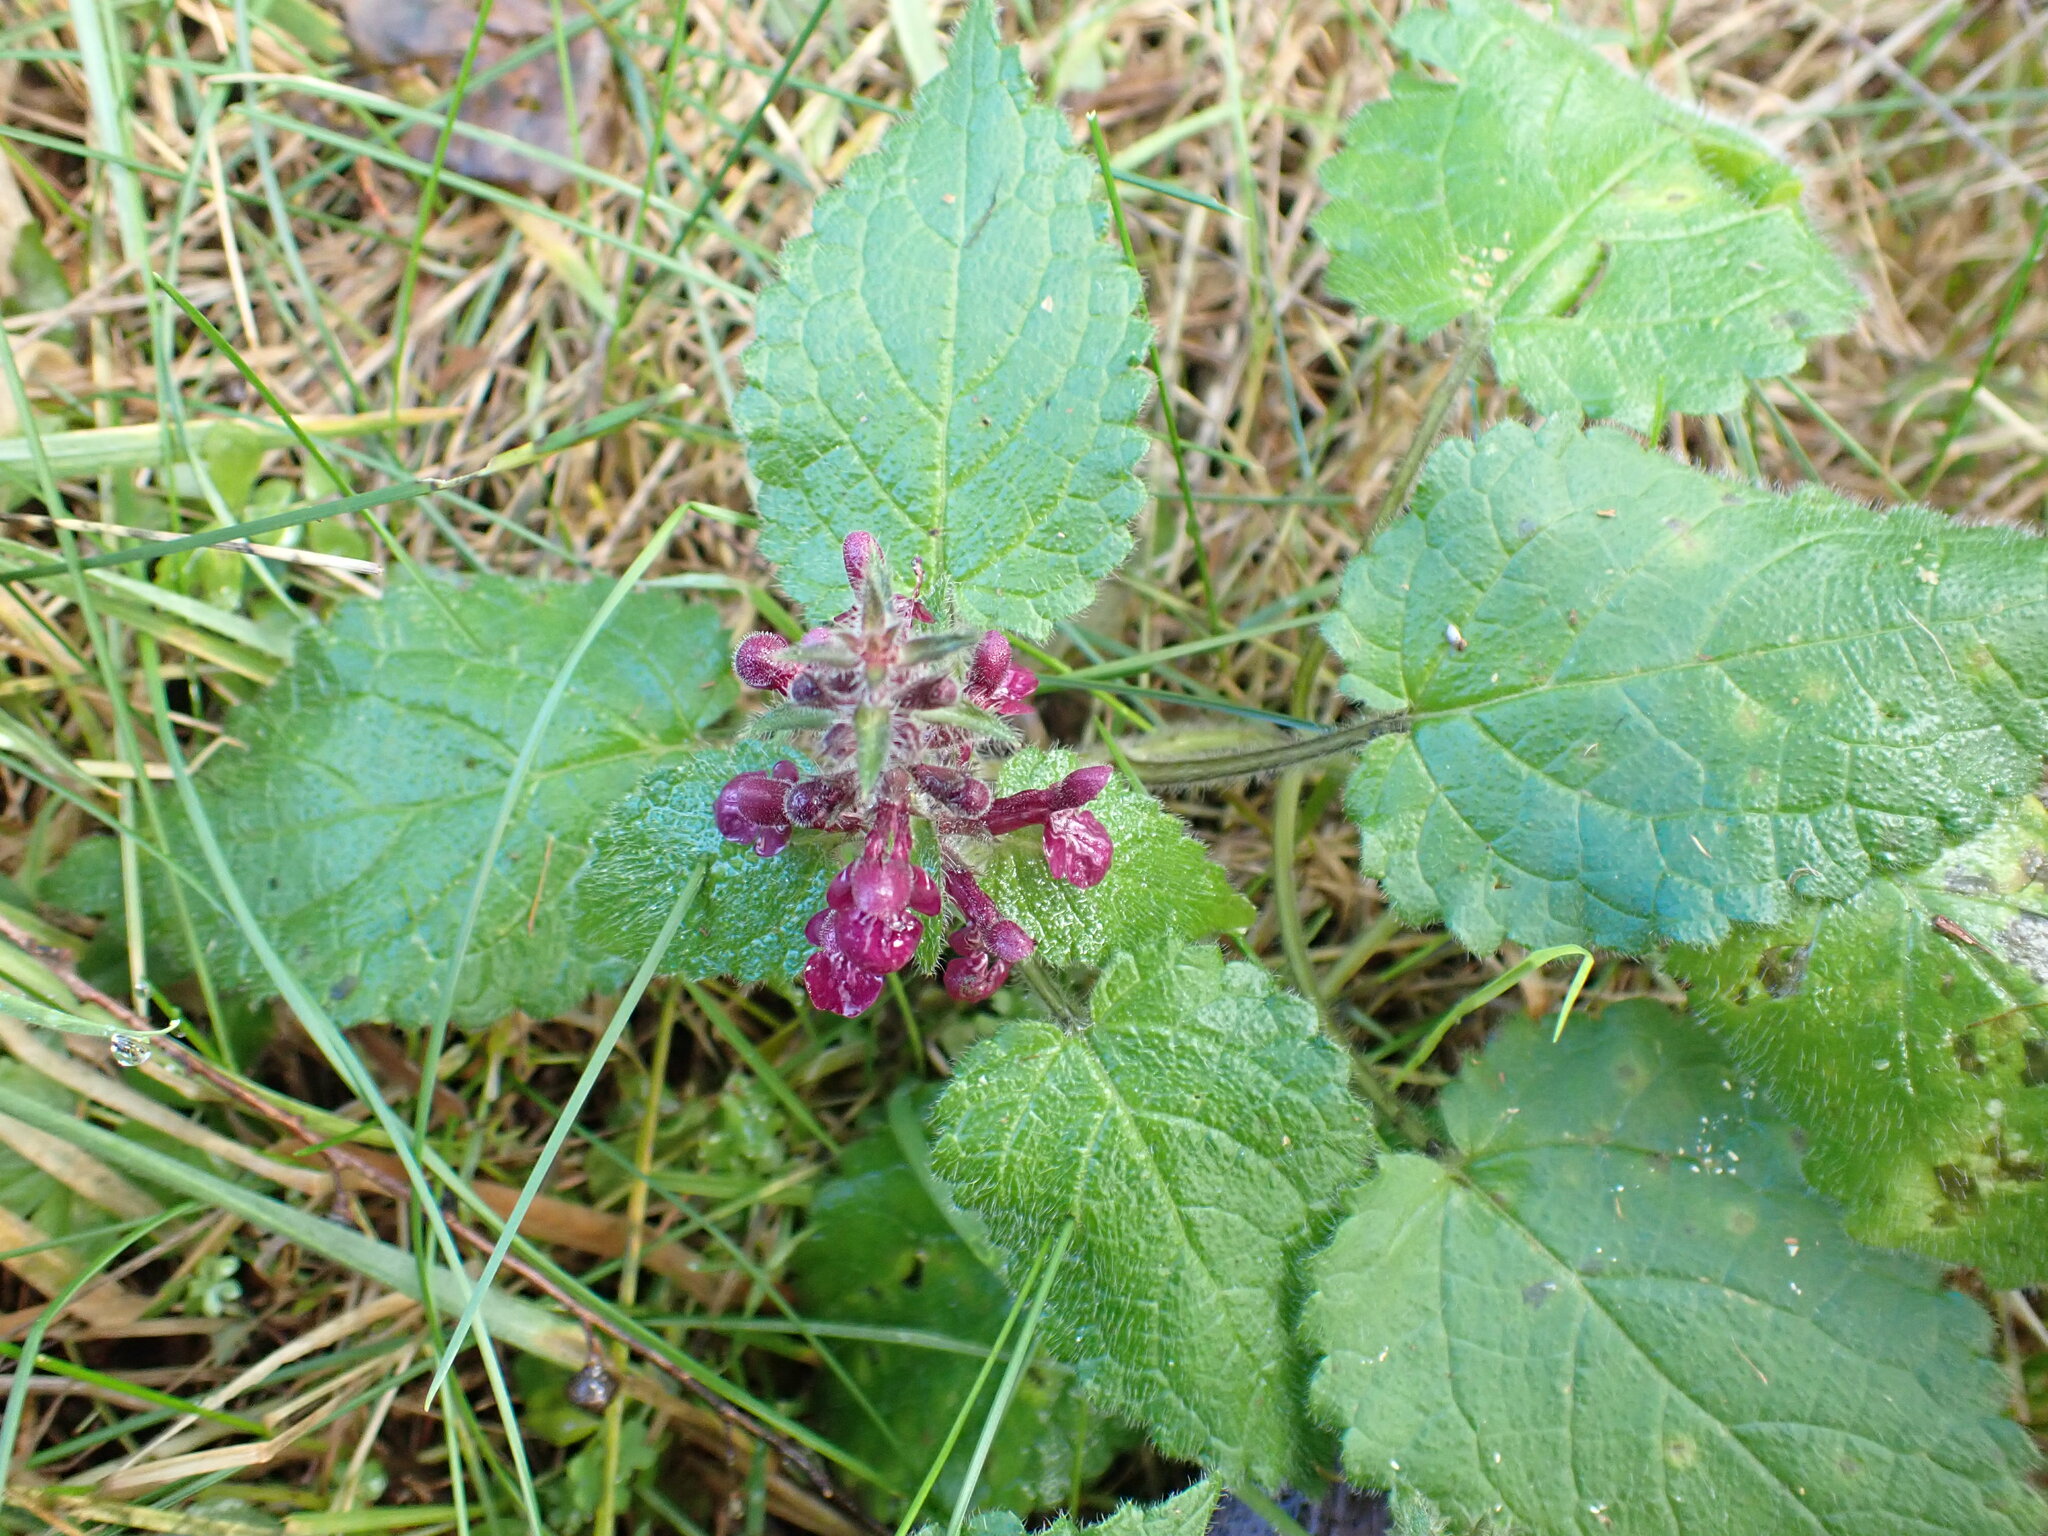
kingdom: Plantae
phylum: Tracheophyta
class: Magnoliopsida
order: Lamiales
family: Lamiaceae
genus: Stachys
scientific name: Stachys sylvatica
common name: Hedge woundwort
